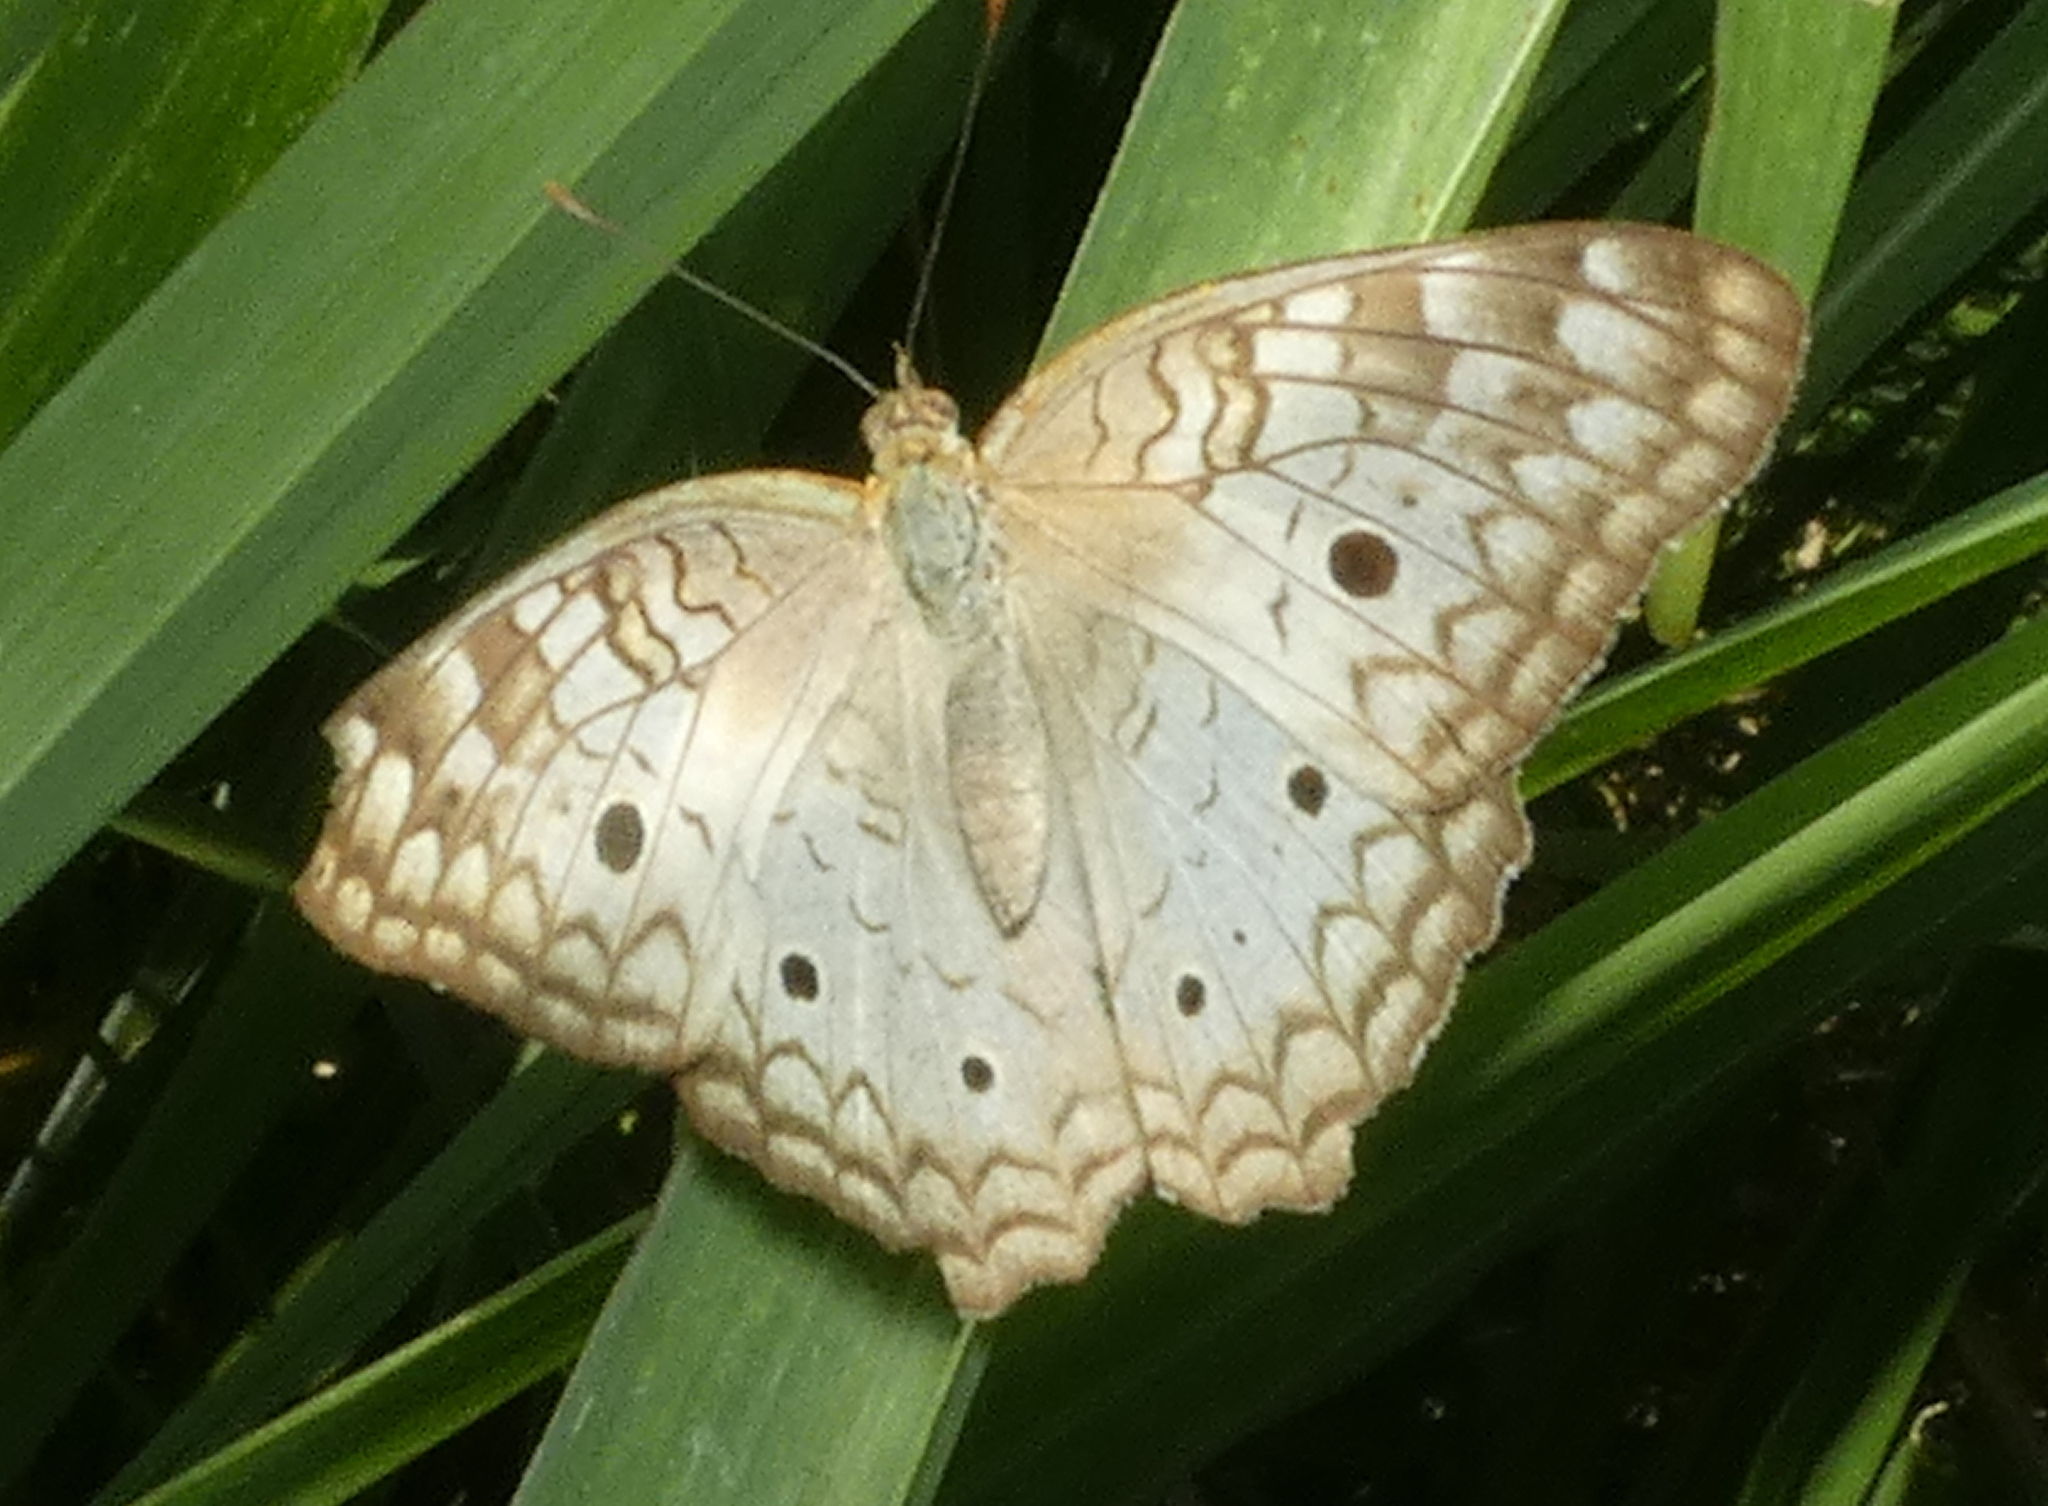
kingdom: Animalia
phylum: Arthropoda
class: Insecta
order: Lepidoptera
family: Nymphalidae
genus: Anartia
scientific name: Anartia jatrophae
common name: White peacock
